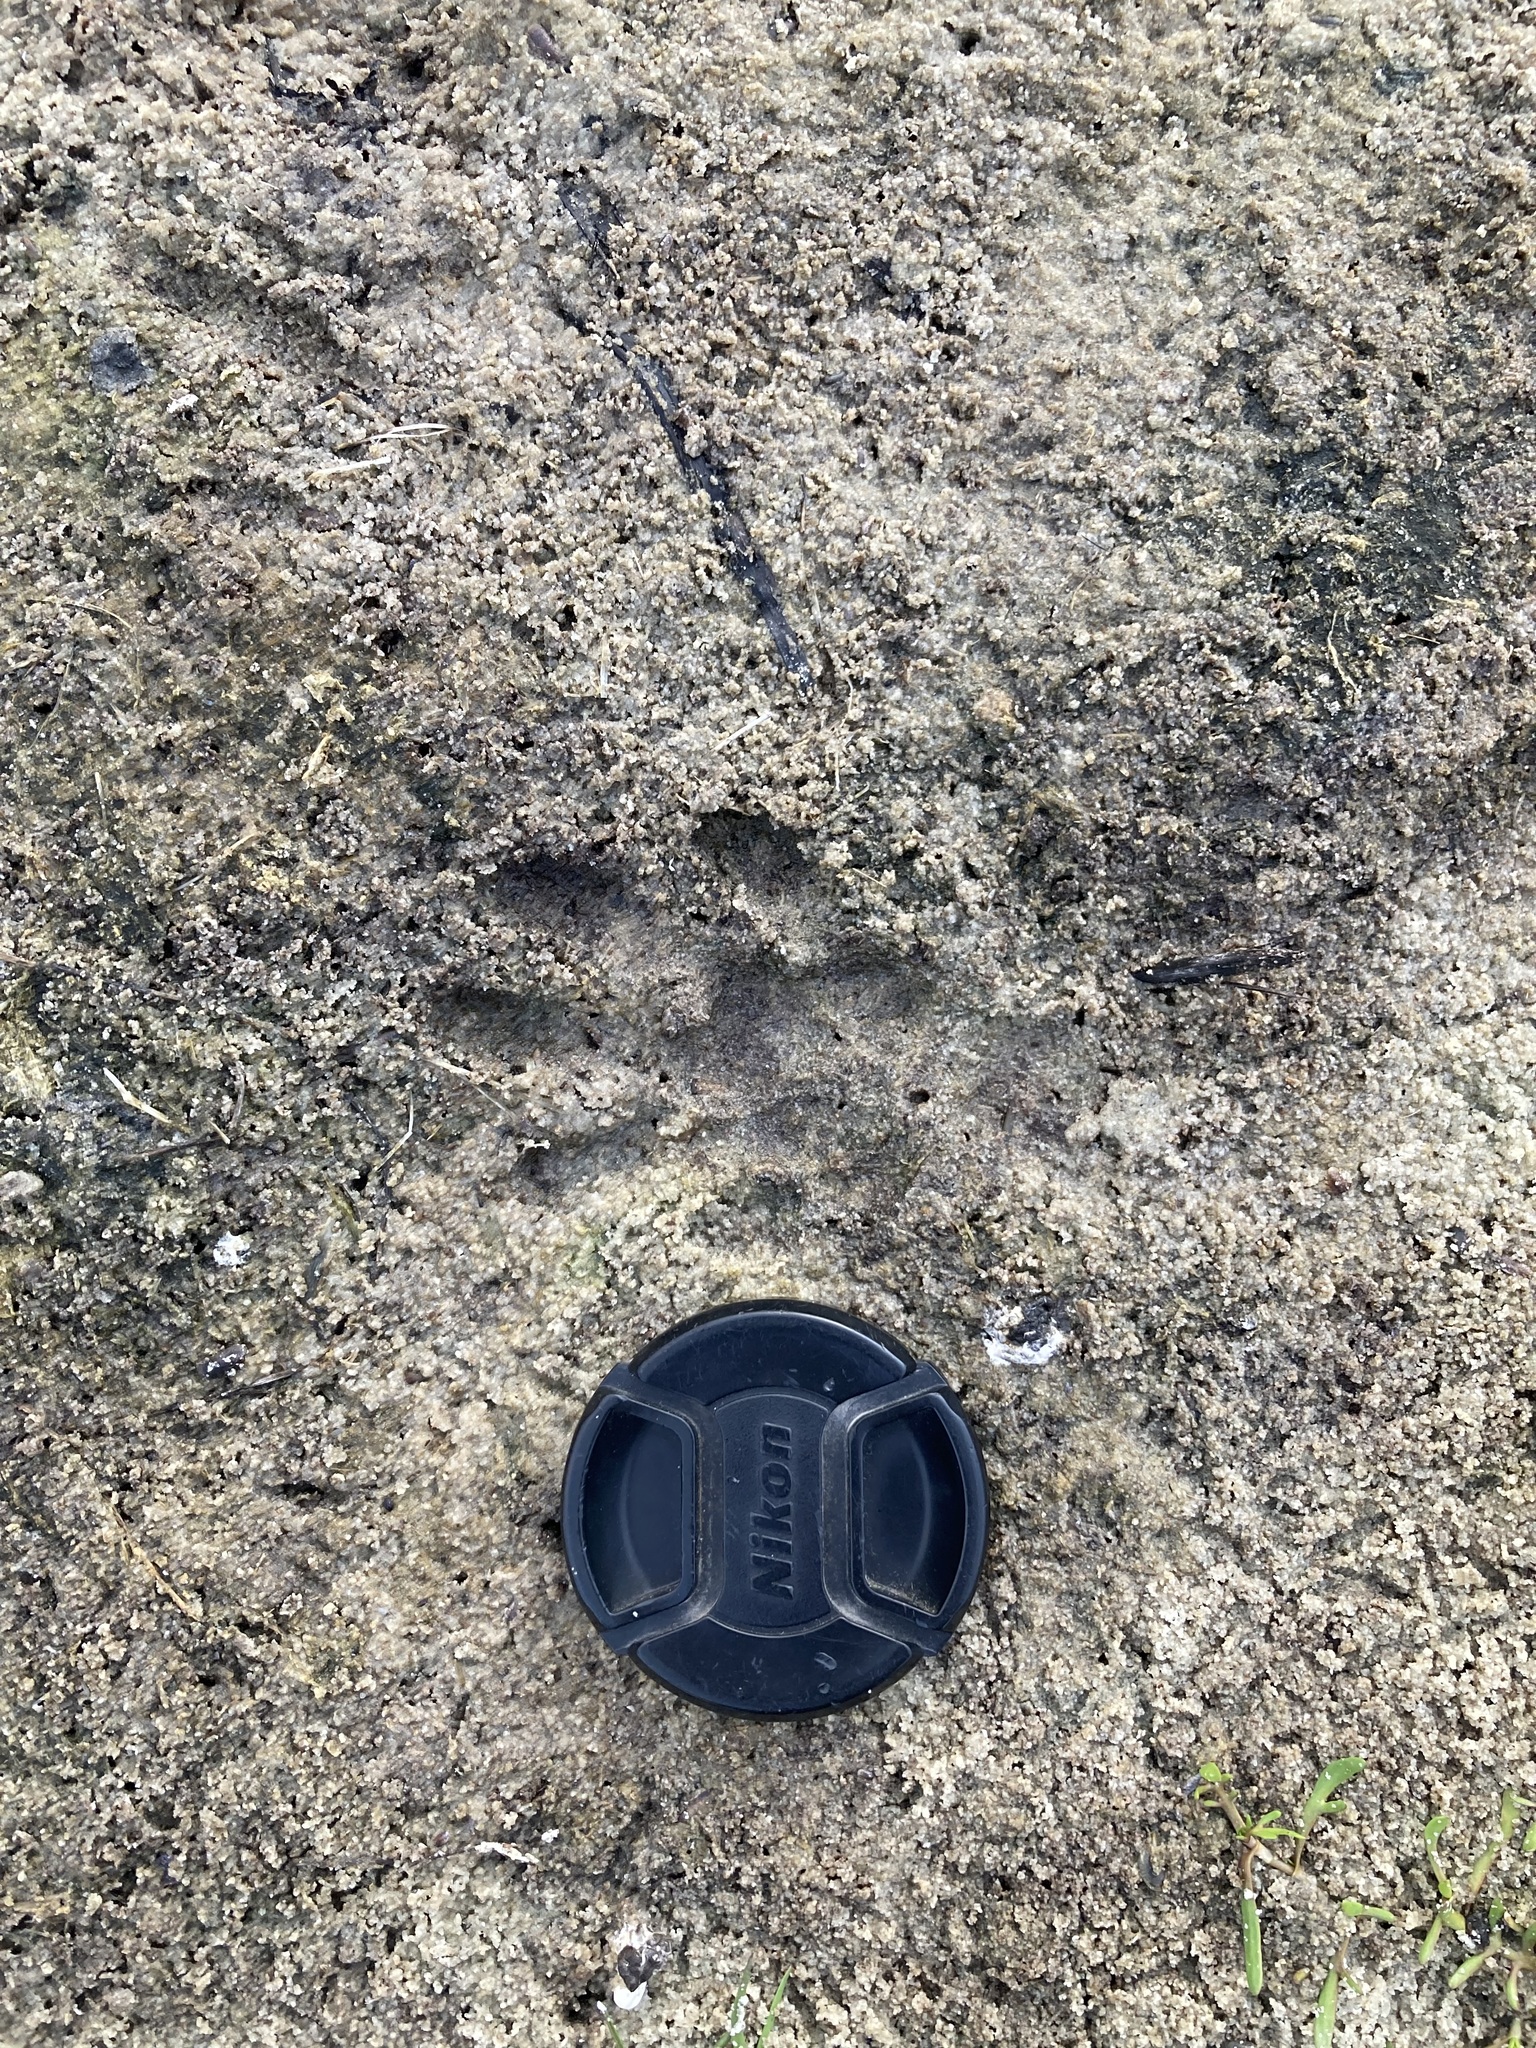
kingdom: Animalia
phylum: Chordata
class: Mammalia
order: Carnivora
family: Mustelidae
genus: Aonyx
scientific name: Aonyx capensis
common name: African clawless otter
